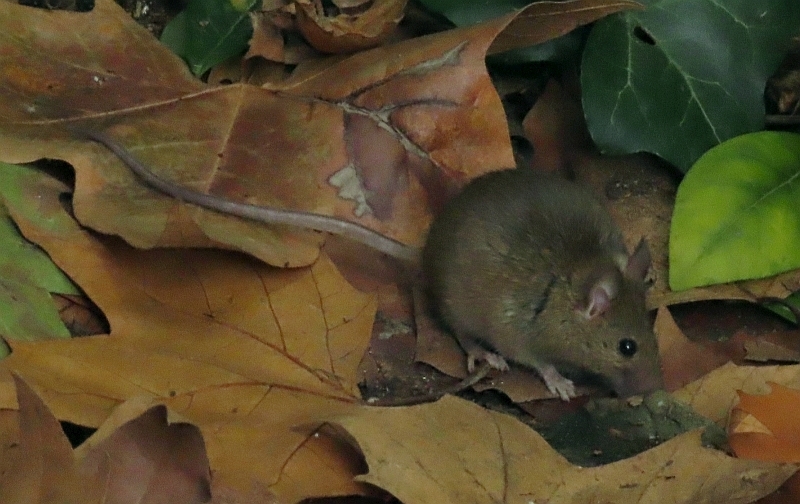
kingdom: Animalia
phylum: Chordata
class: Mammalia
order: Rodentia
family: Muridae
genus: Mus
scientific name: Mus musculus
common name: House mouse
